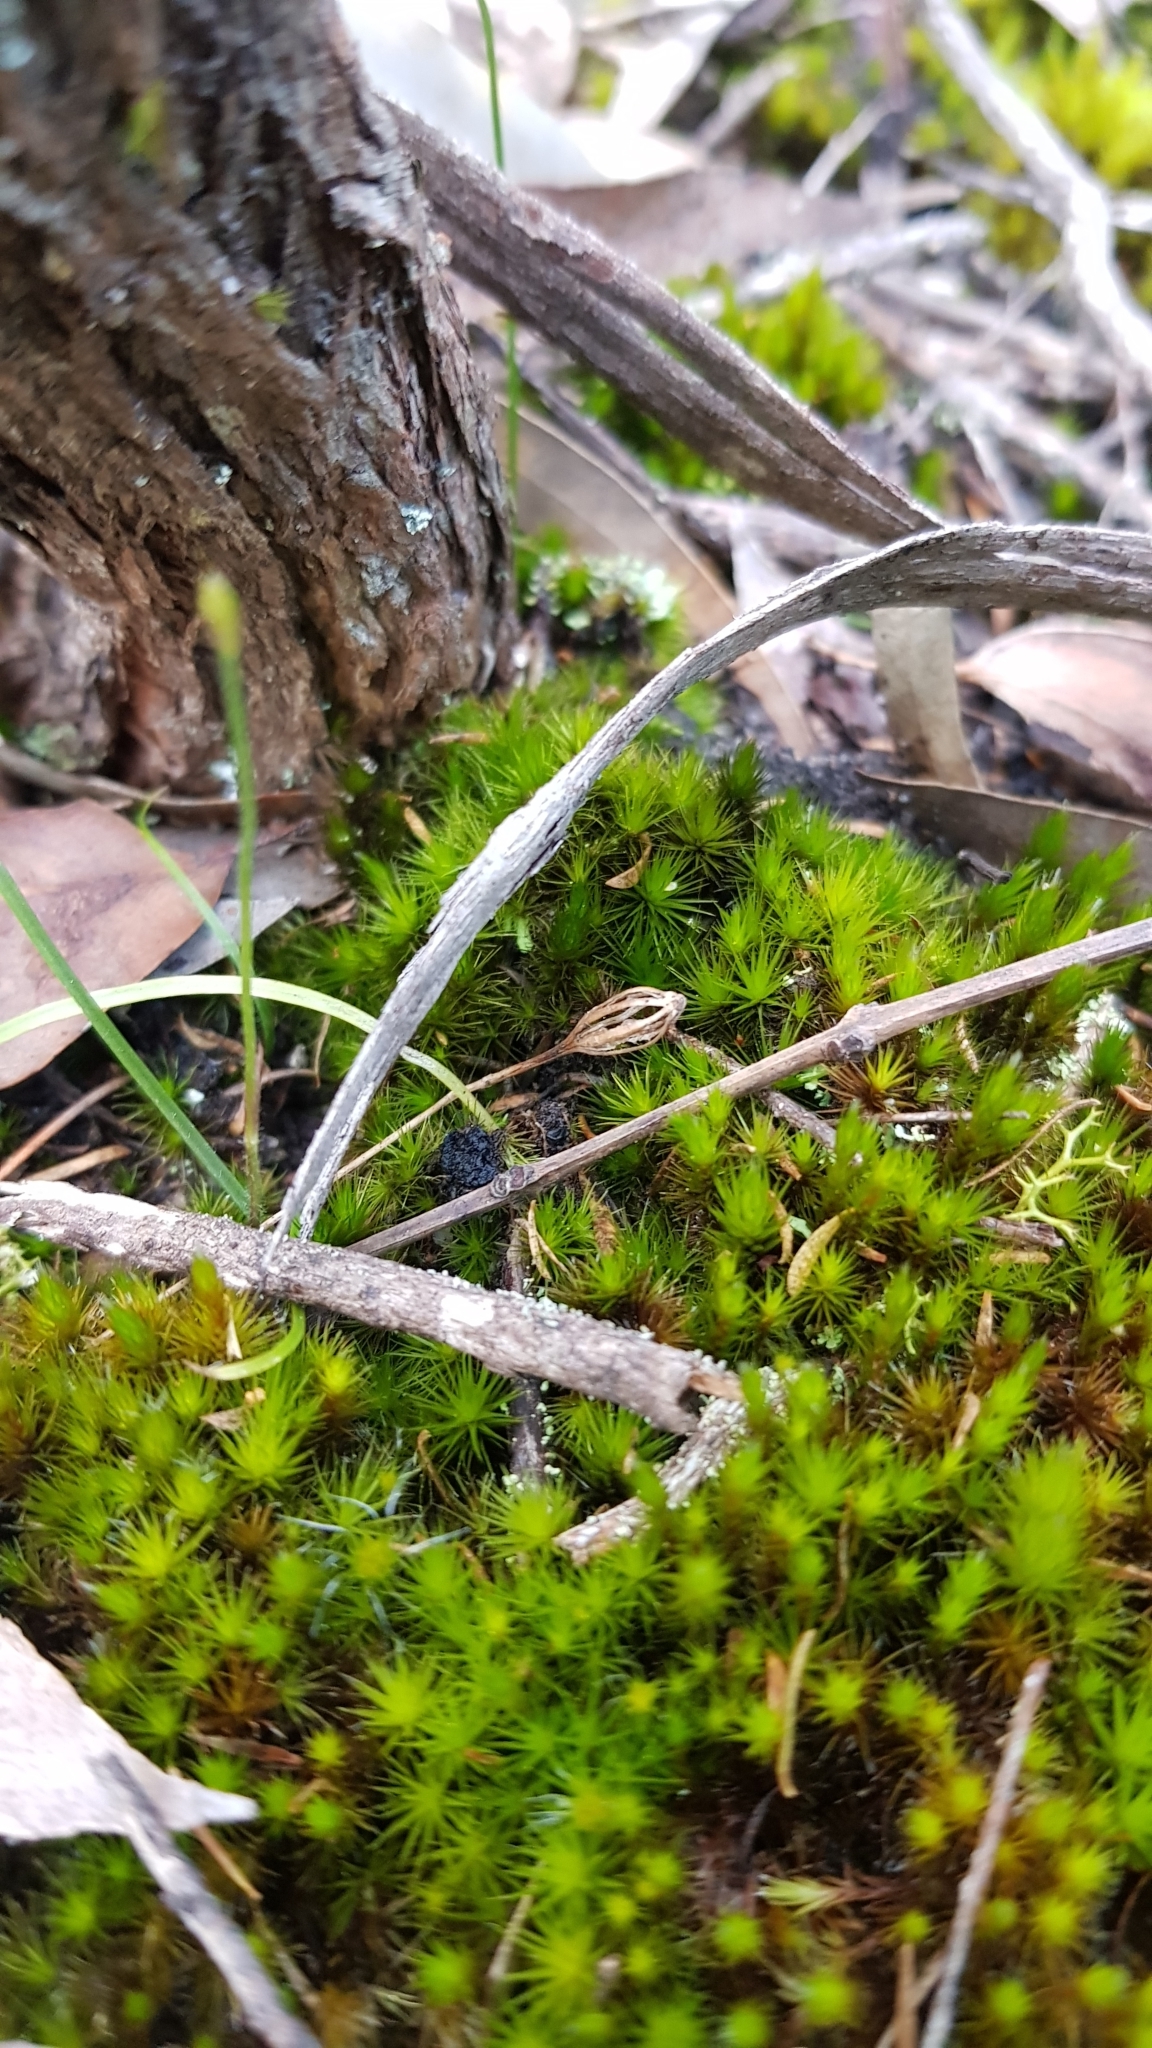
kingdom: Plantae
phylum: Tracheophyta
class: Liliopsida
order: Asparagales
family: Orchidaceae
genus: Caladenia
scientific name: Caladenia alata
